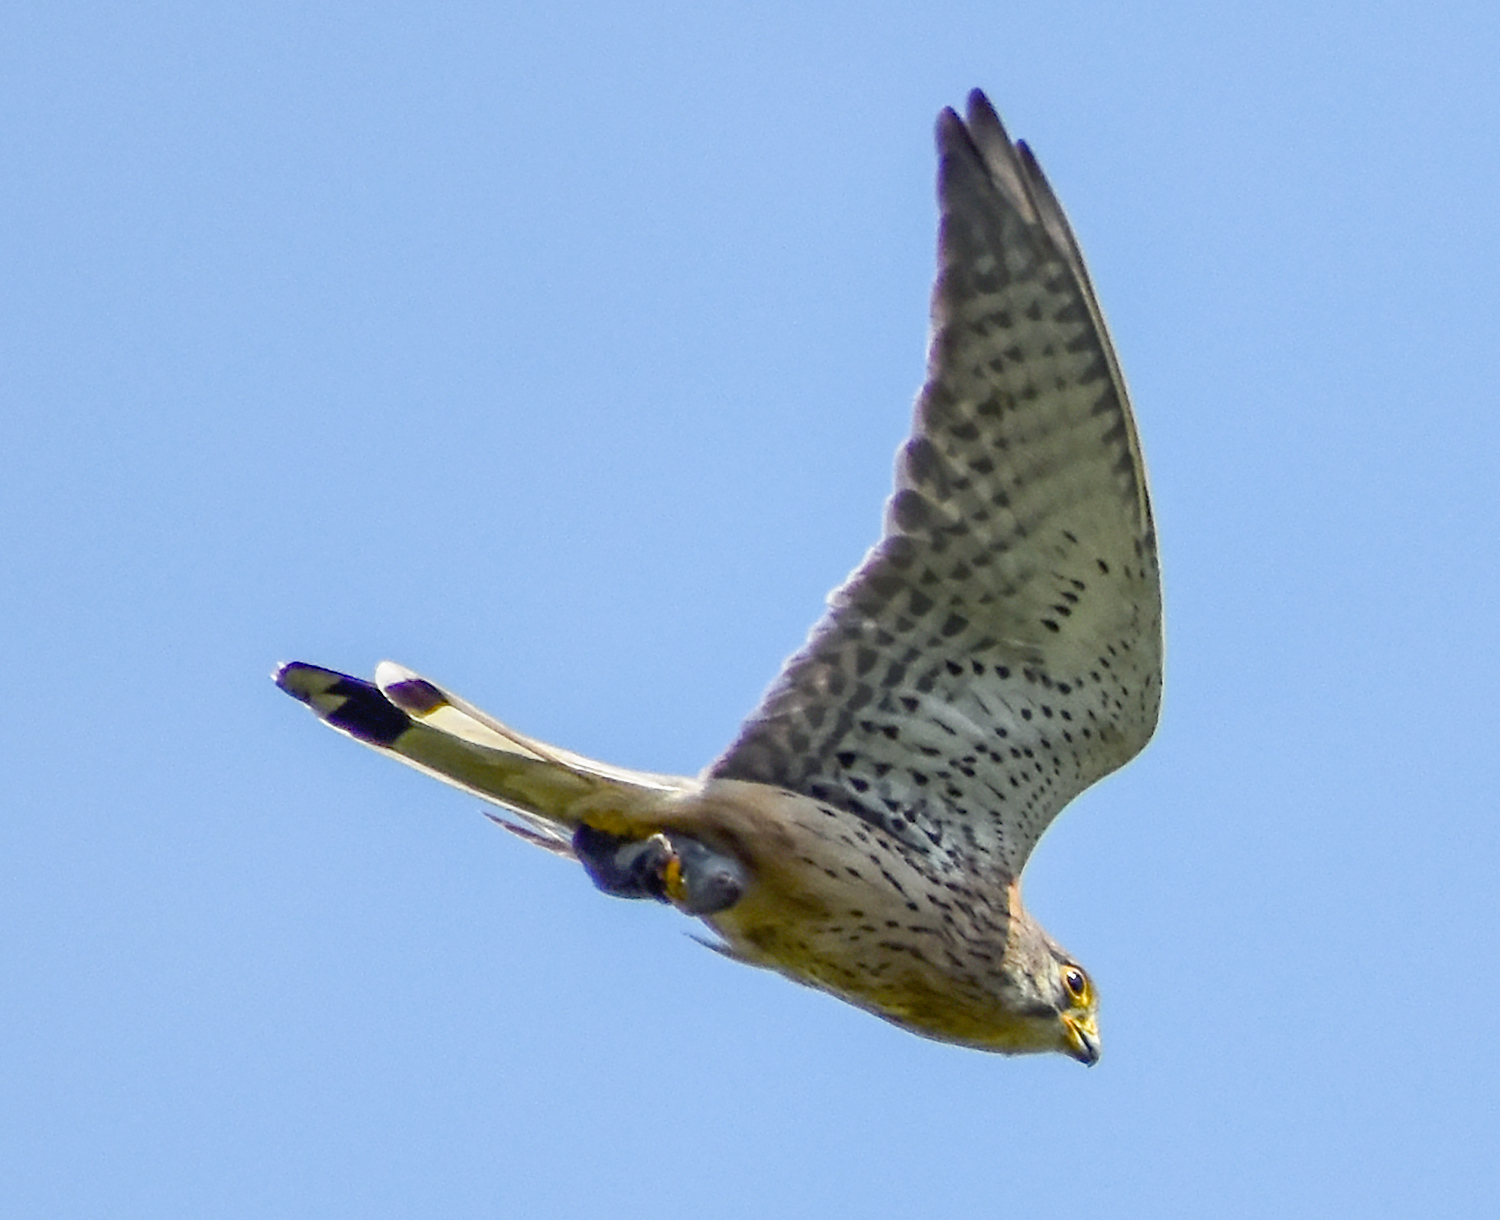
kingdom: Animalia
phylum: Chordata
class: Aves
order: Falconiformes
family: Falconidae
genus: Falco
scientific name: Falco tinnunculus
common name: Common kestrel
